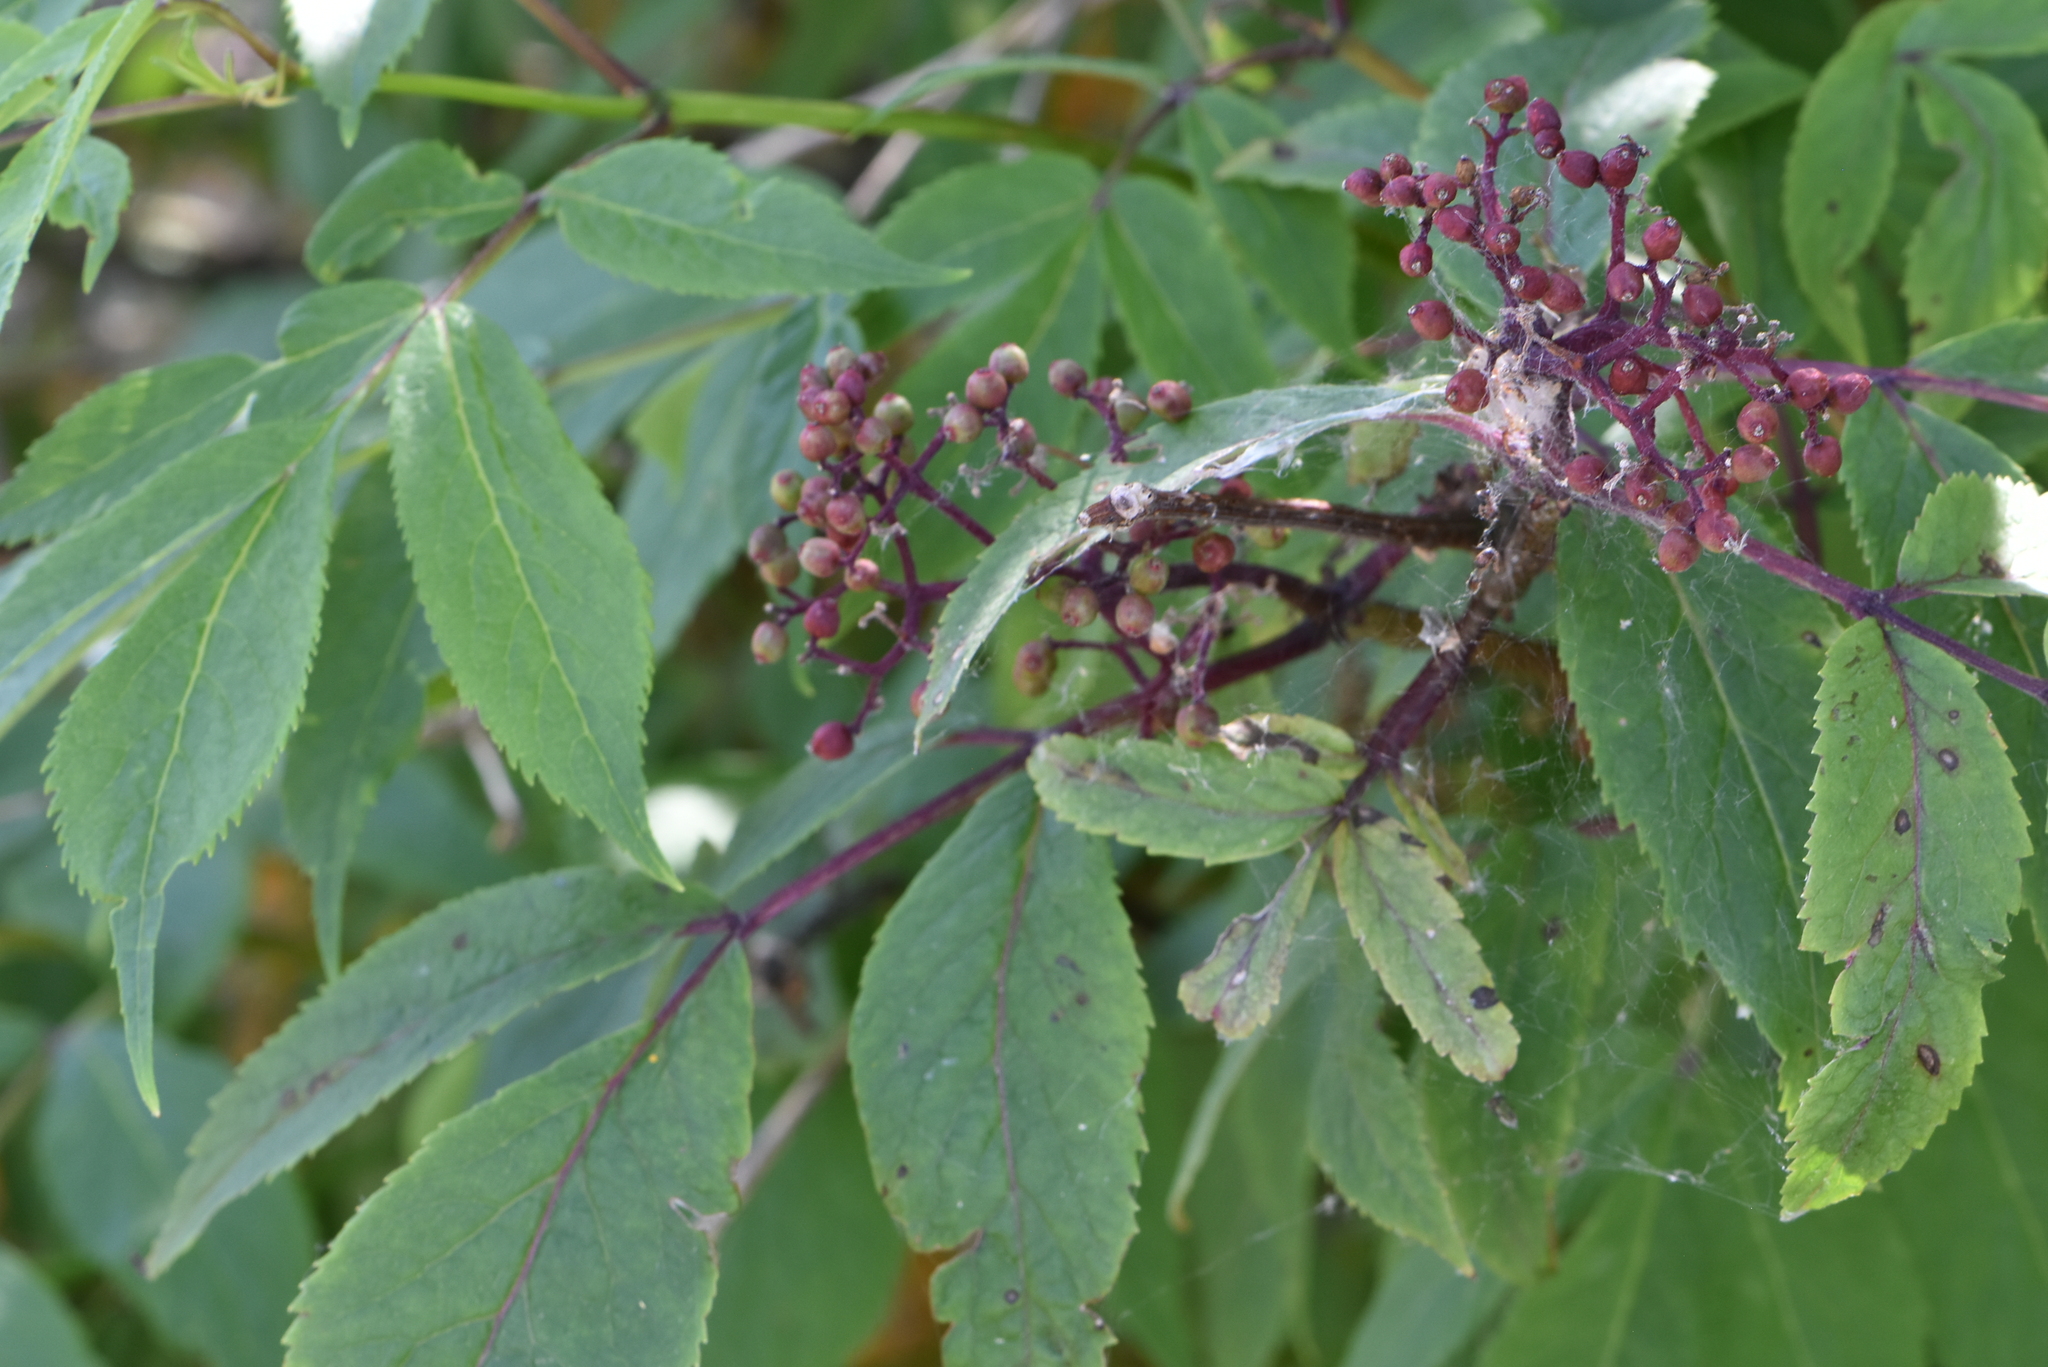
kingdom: Plantae
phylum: Tracheophyta
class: Magnoliopsida
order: Dipsacales
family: Viburnaceae
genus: Sambucus
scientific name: Sambucus racemosa
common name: Red-berried elder
